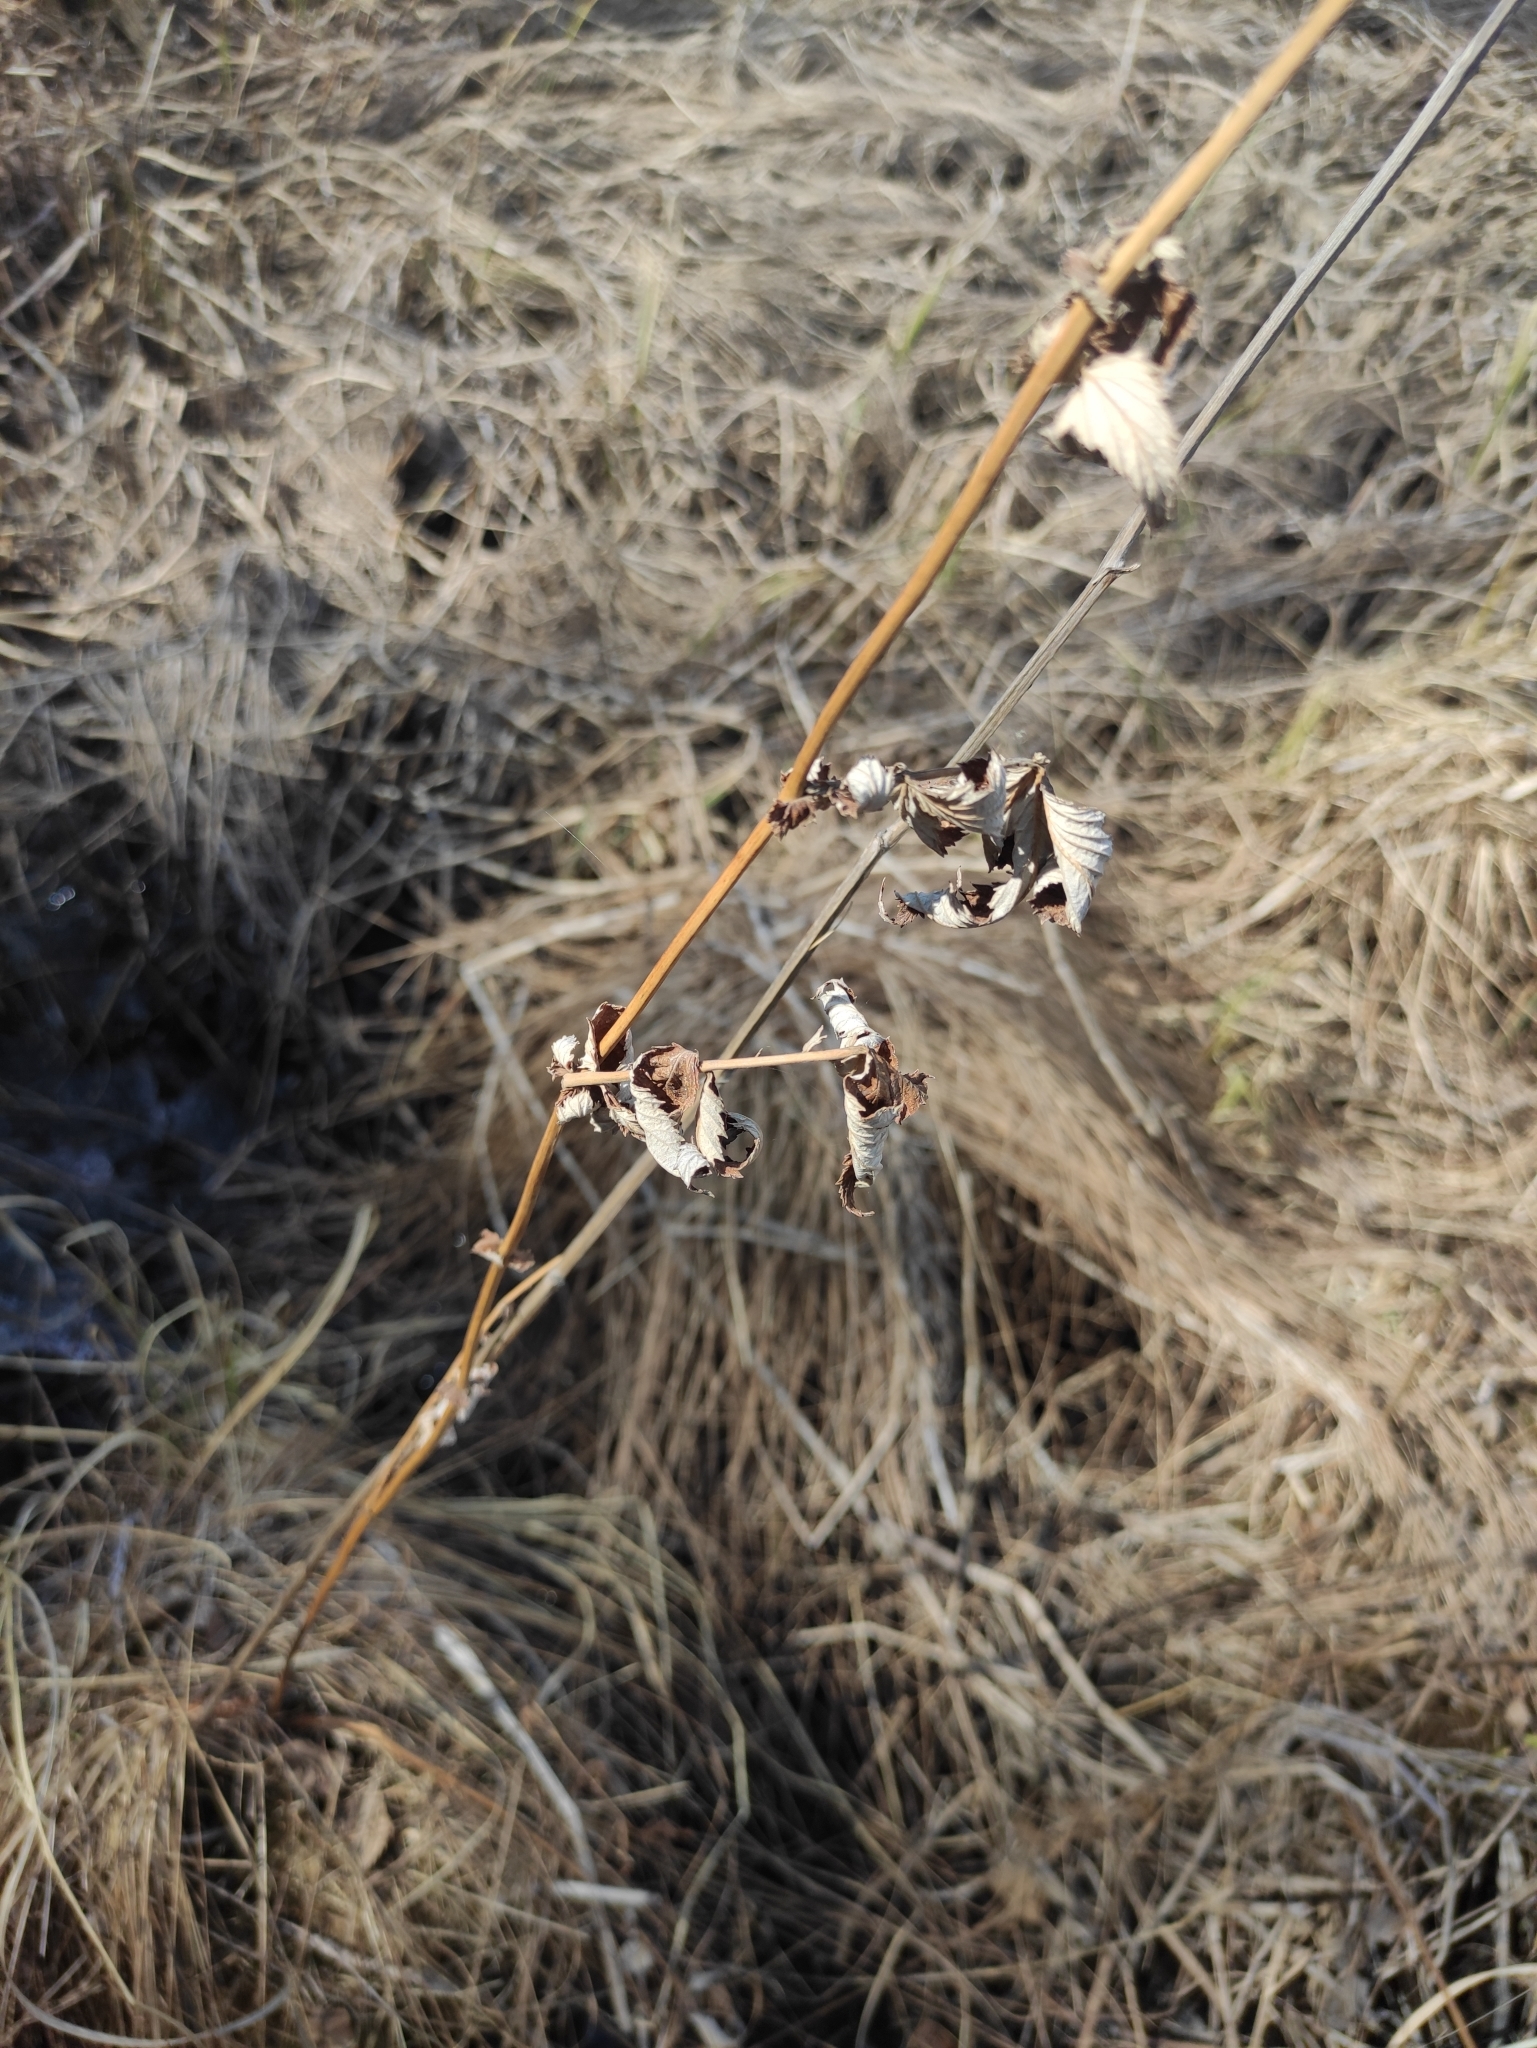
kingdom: Plantae
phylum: Tracheophyta
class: Magnoliopsida
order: Rosales
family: Rosaceae
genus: Filipendula
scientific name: Filipendula ulmaria
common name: Meadowsweet
